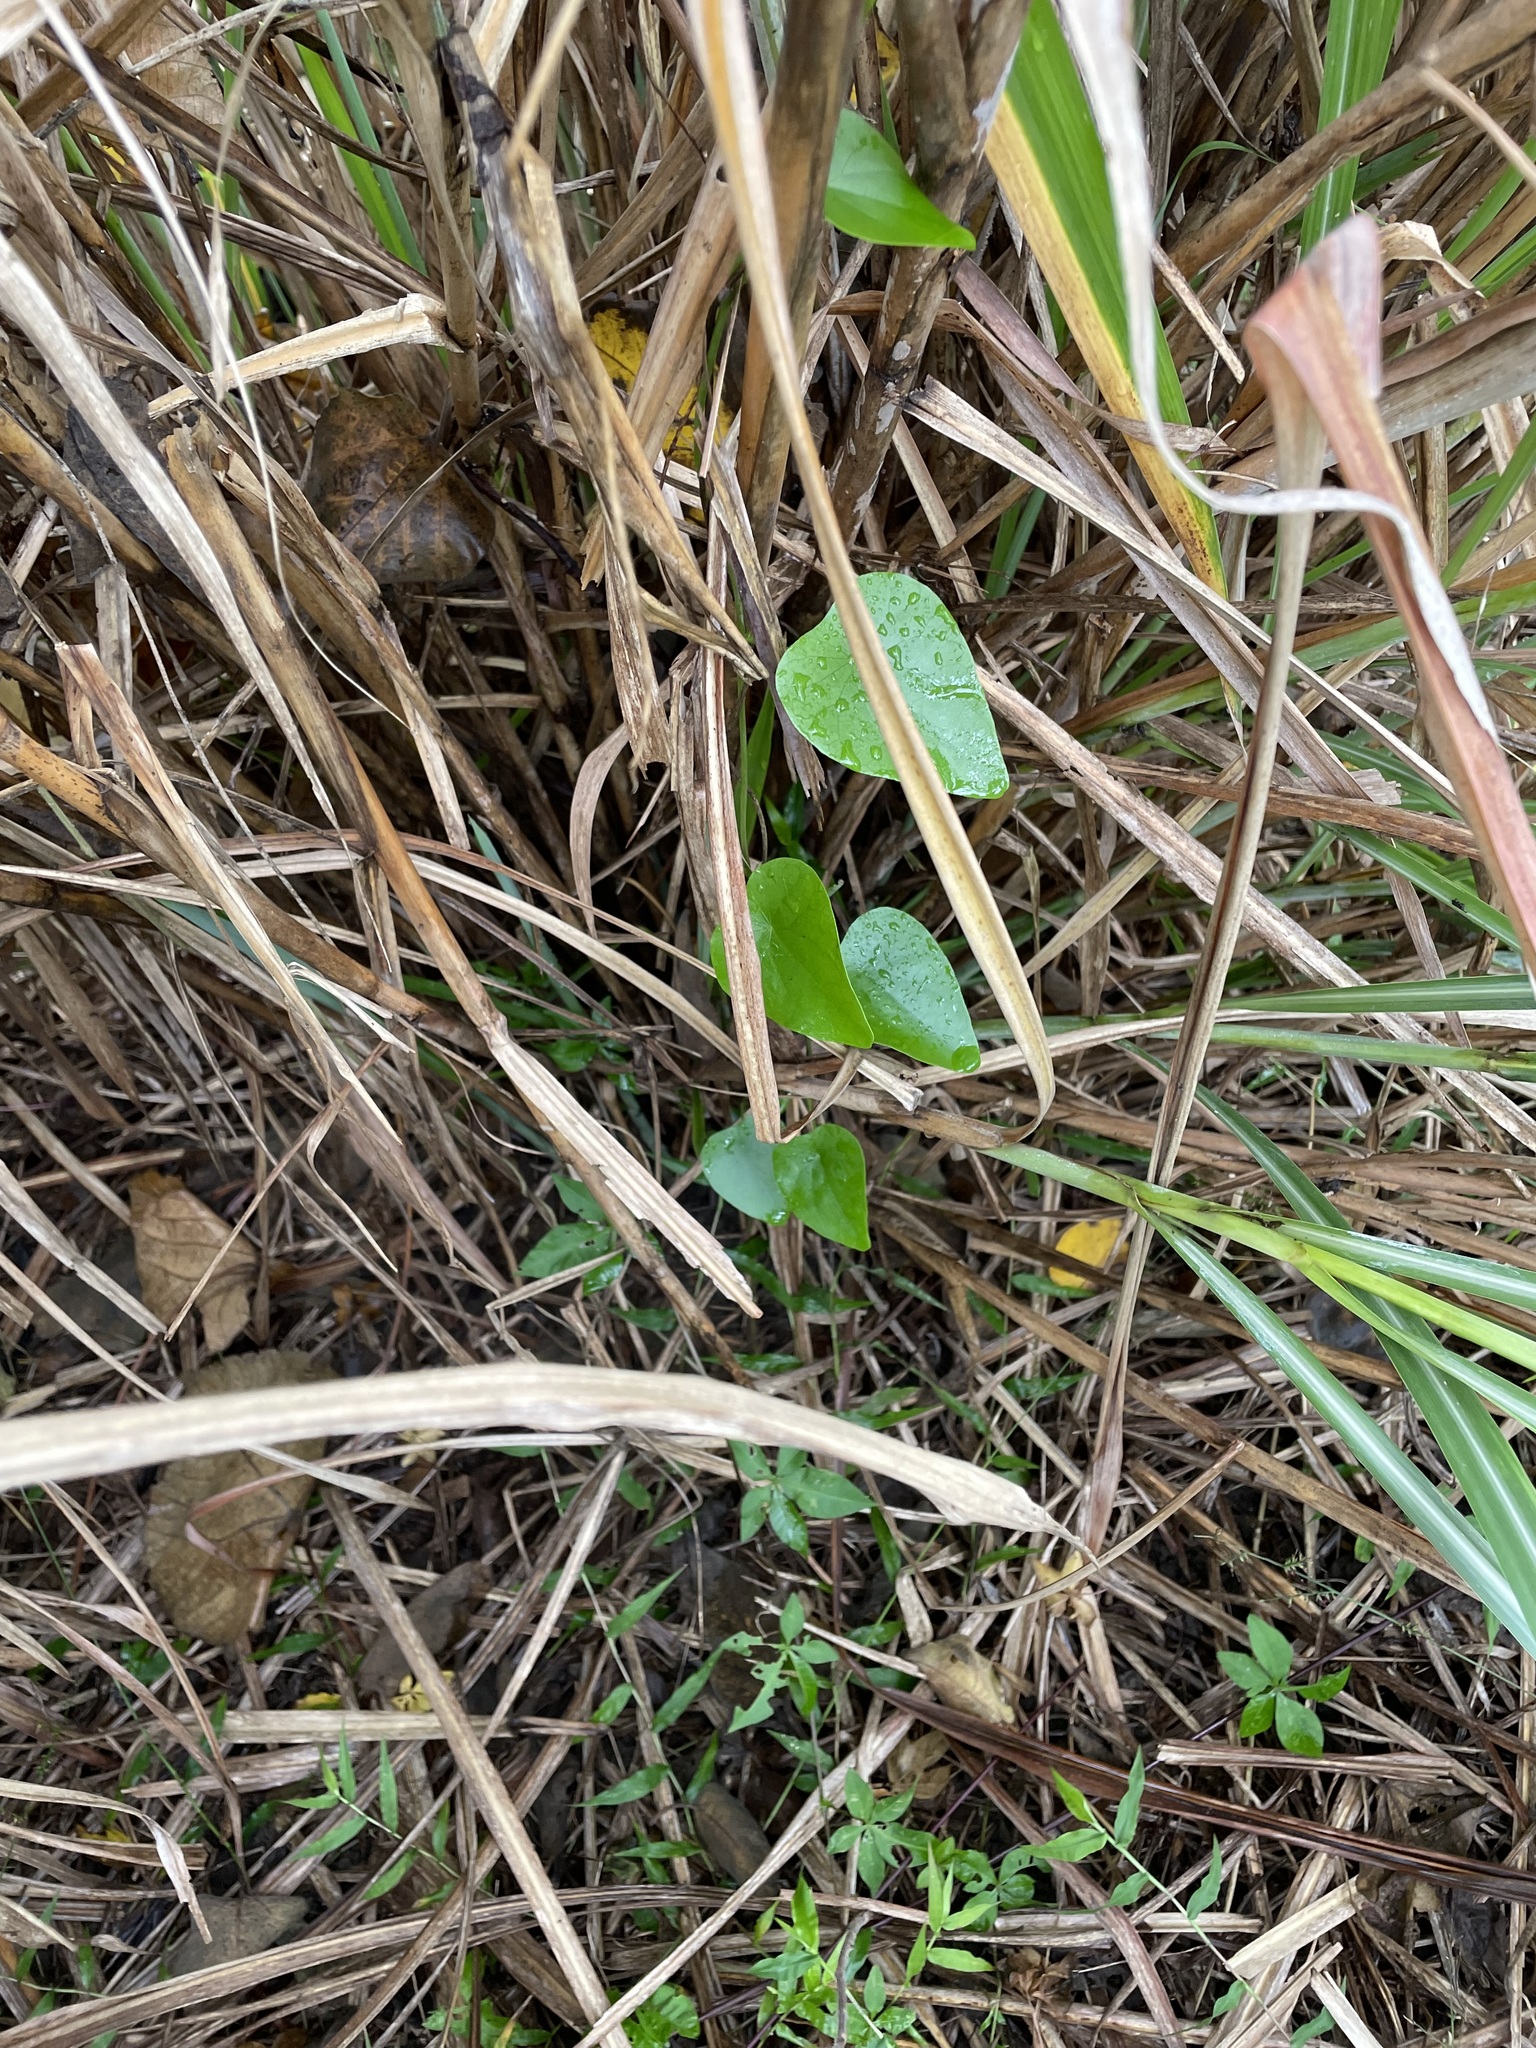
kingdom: Plantae
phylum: Tracheophyta
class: Magnoliopsida
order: Ranunculales
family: Menispermaceae
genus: Stephania
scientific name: Stephania japonica
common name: Snake vine
